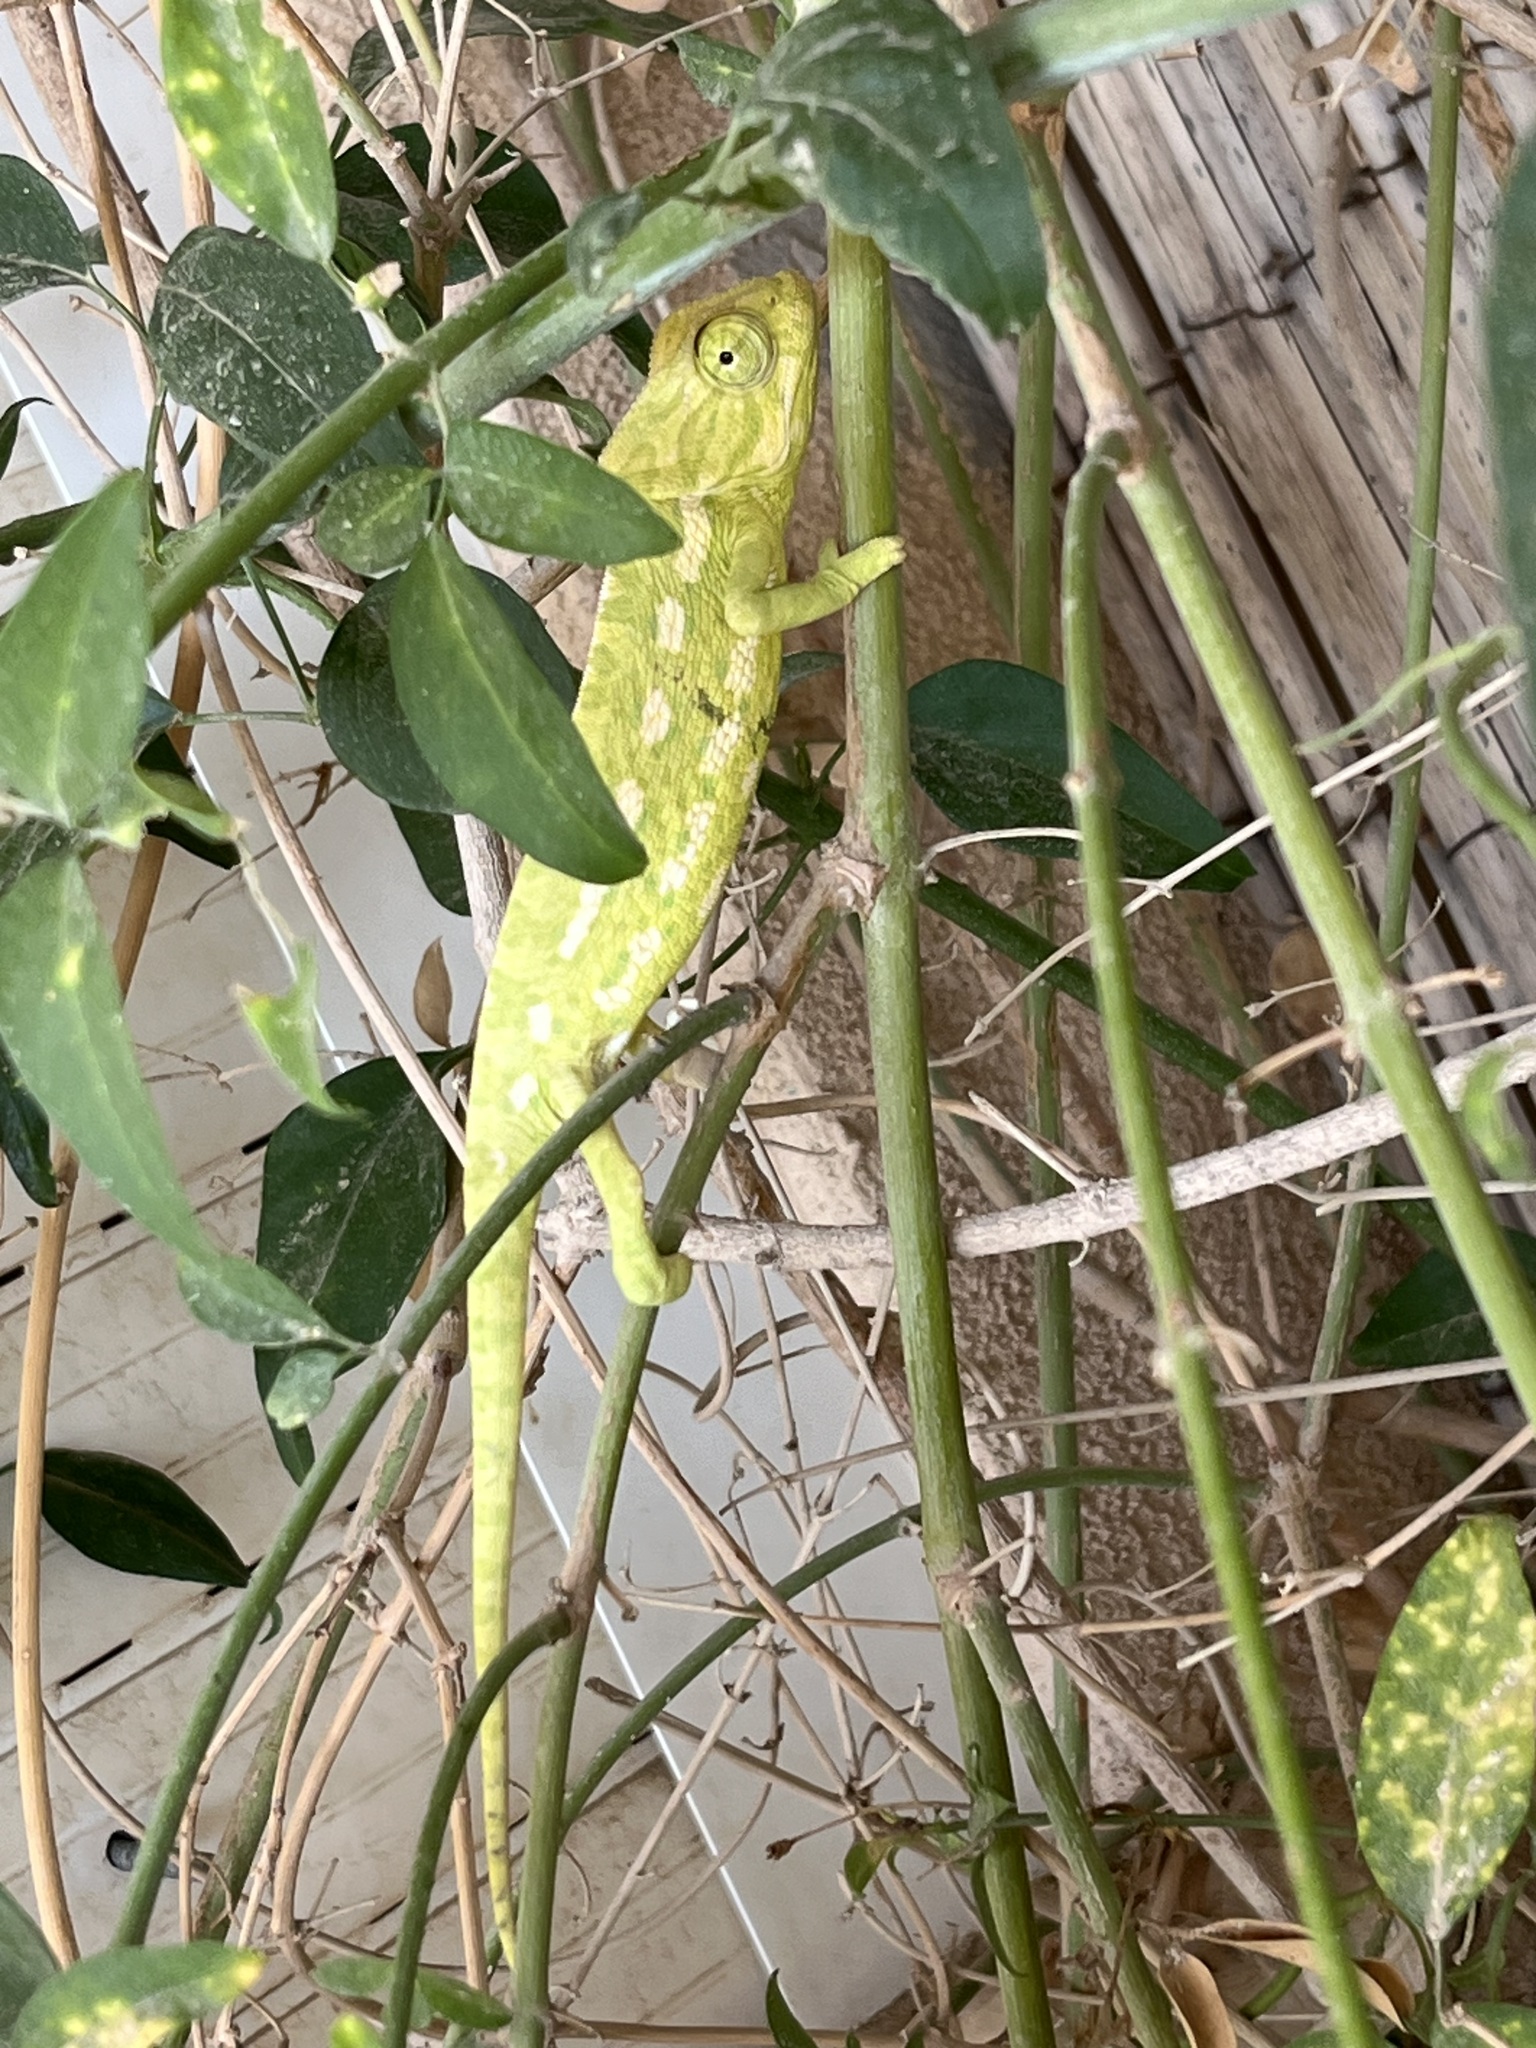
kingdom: Animalia
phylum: Chordata
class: Squamata
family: Chamaeleonidae
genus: Chamaeleo
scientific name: Chamaeleo chamaeleon
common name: Mediterranean chameleon
